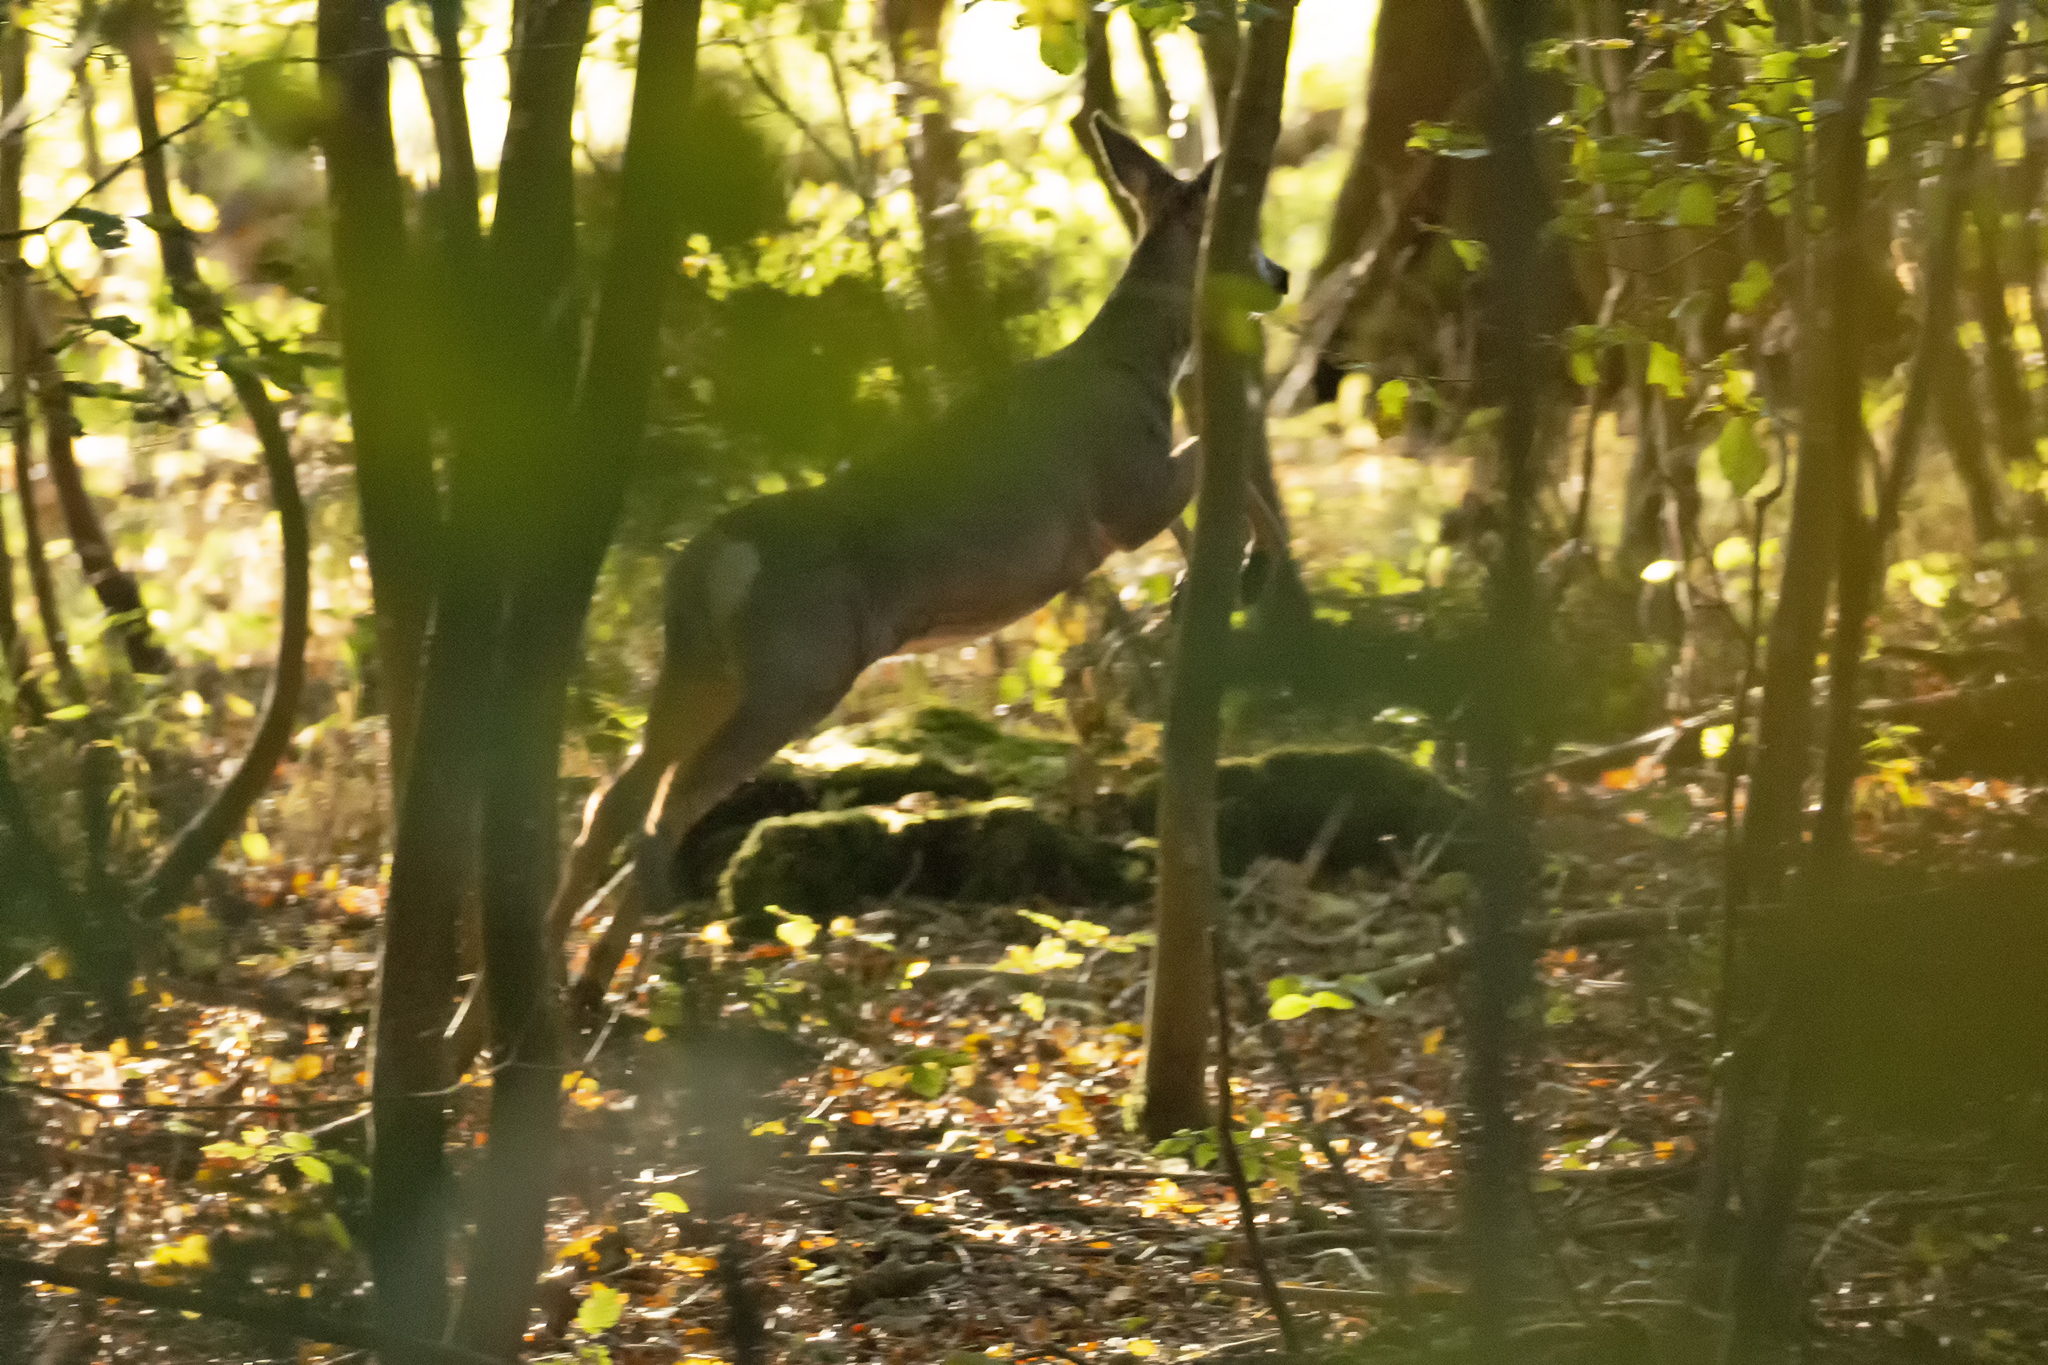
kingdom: Animalia
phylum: Chordata
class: Mammalia
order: Artiodactyla
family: Cervidae
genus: Capreolus
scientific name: Capreolus capreolus
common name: Western roe deer
